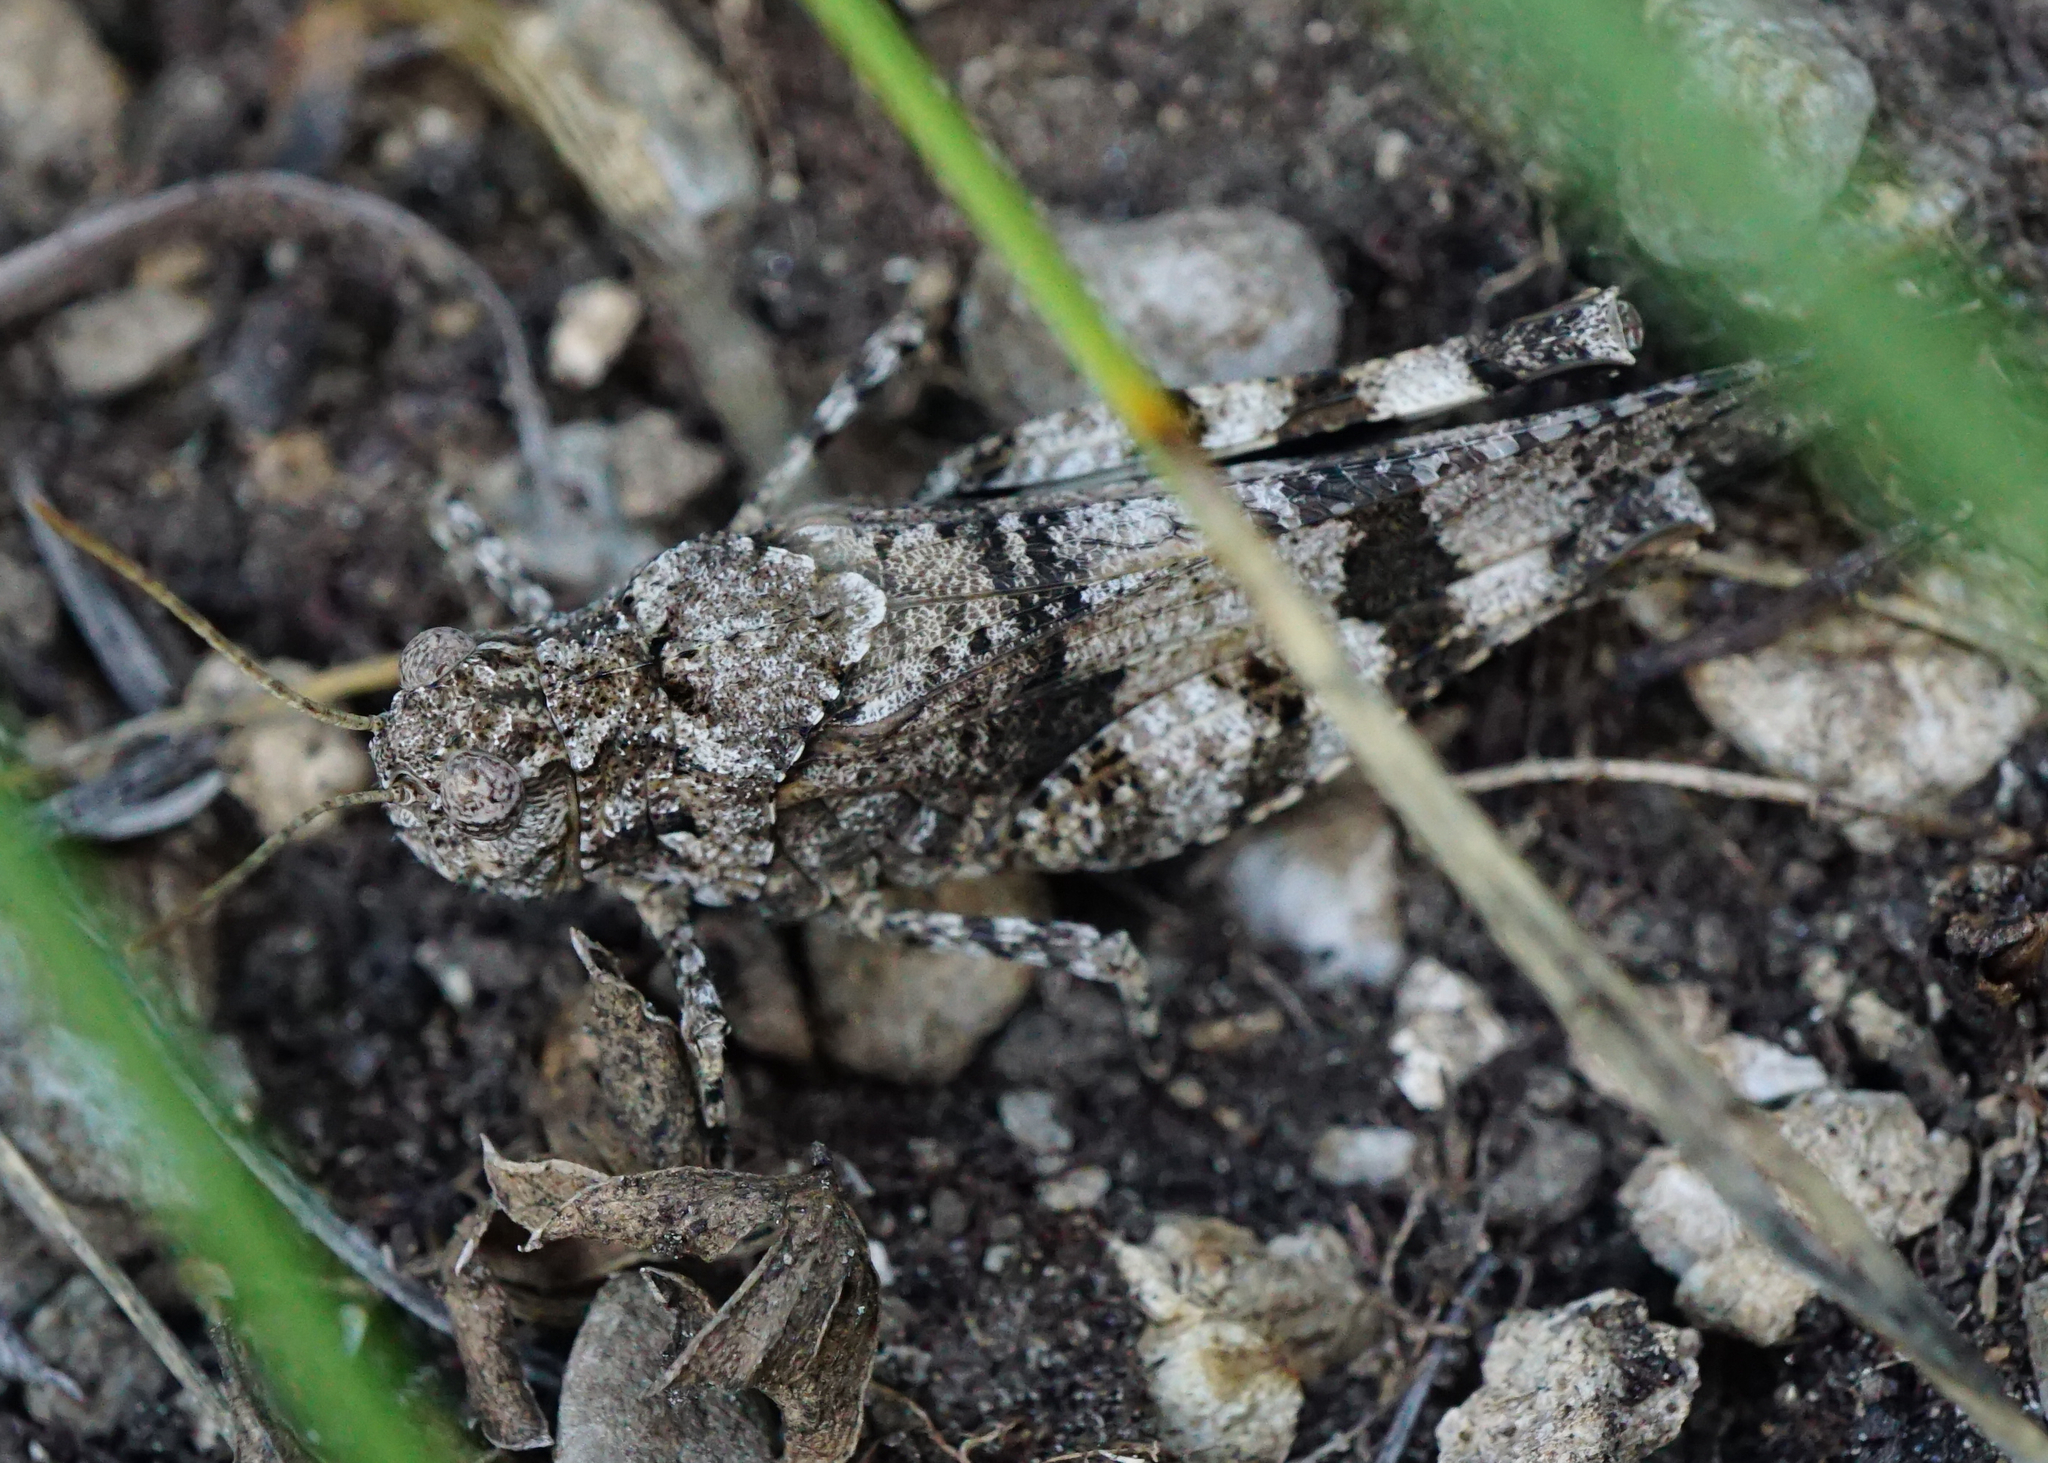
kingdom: Animalia
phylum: Arthropoda
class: Insecta
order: Orthoptera
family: Acrididae
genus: Oedipoda
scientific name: Oedipoda caerulescens
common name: Blue-winged grasshopper
